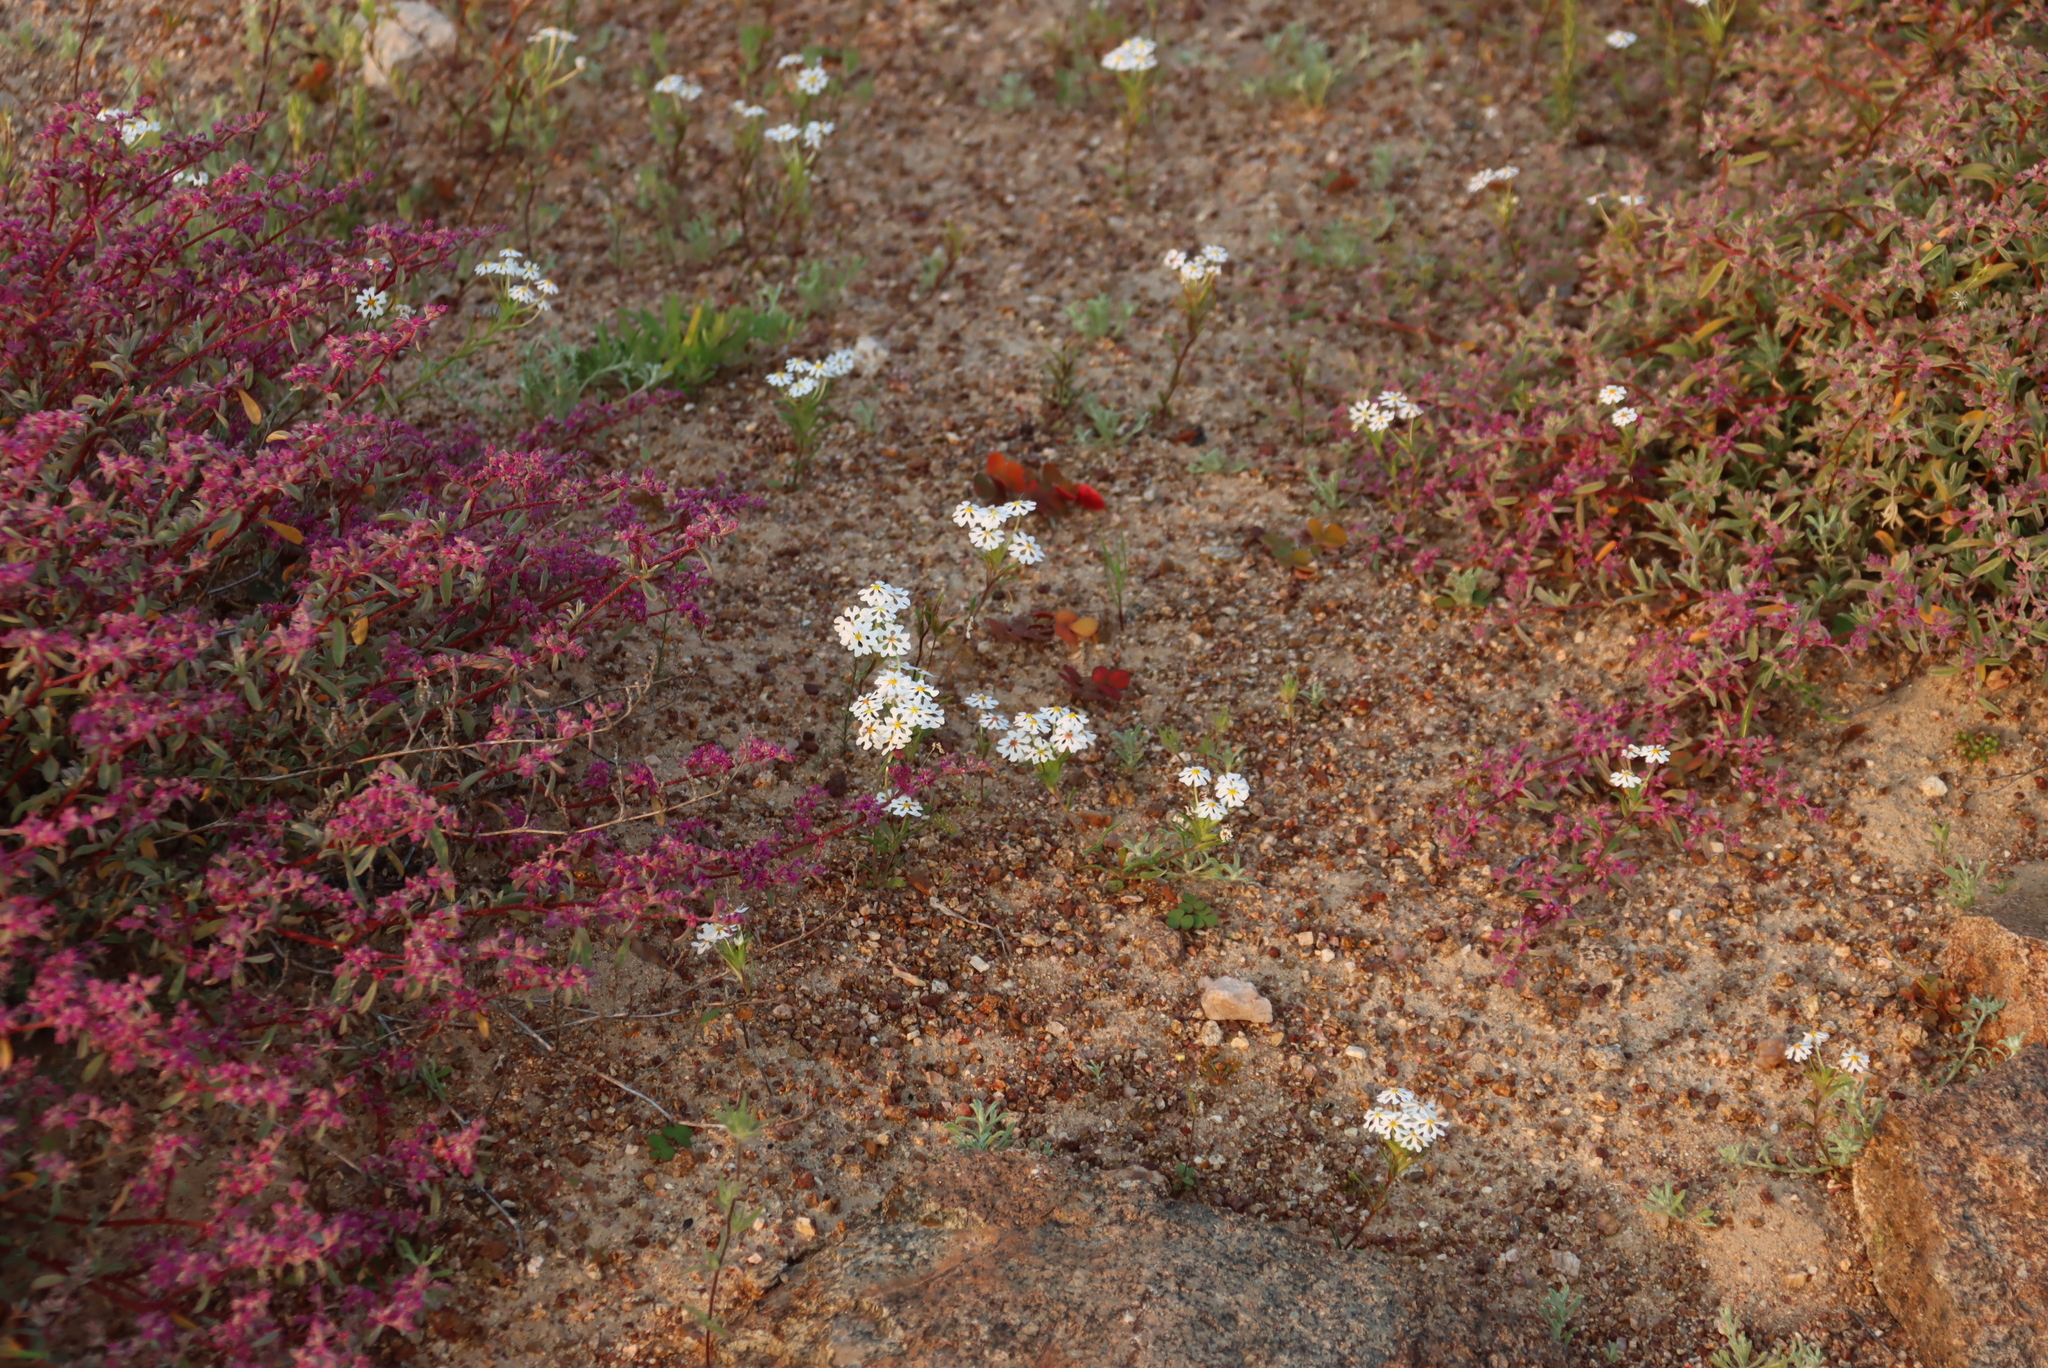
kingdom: Plantae
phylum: Tracheophyta
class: Magnoliopsida
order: Lamiales
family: Scrophulariaceae
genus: Zaluzianskya
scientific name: Zaluzianskya affinis
